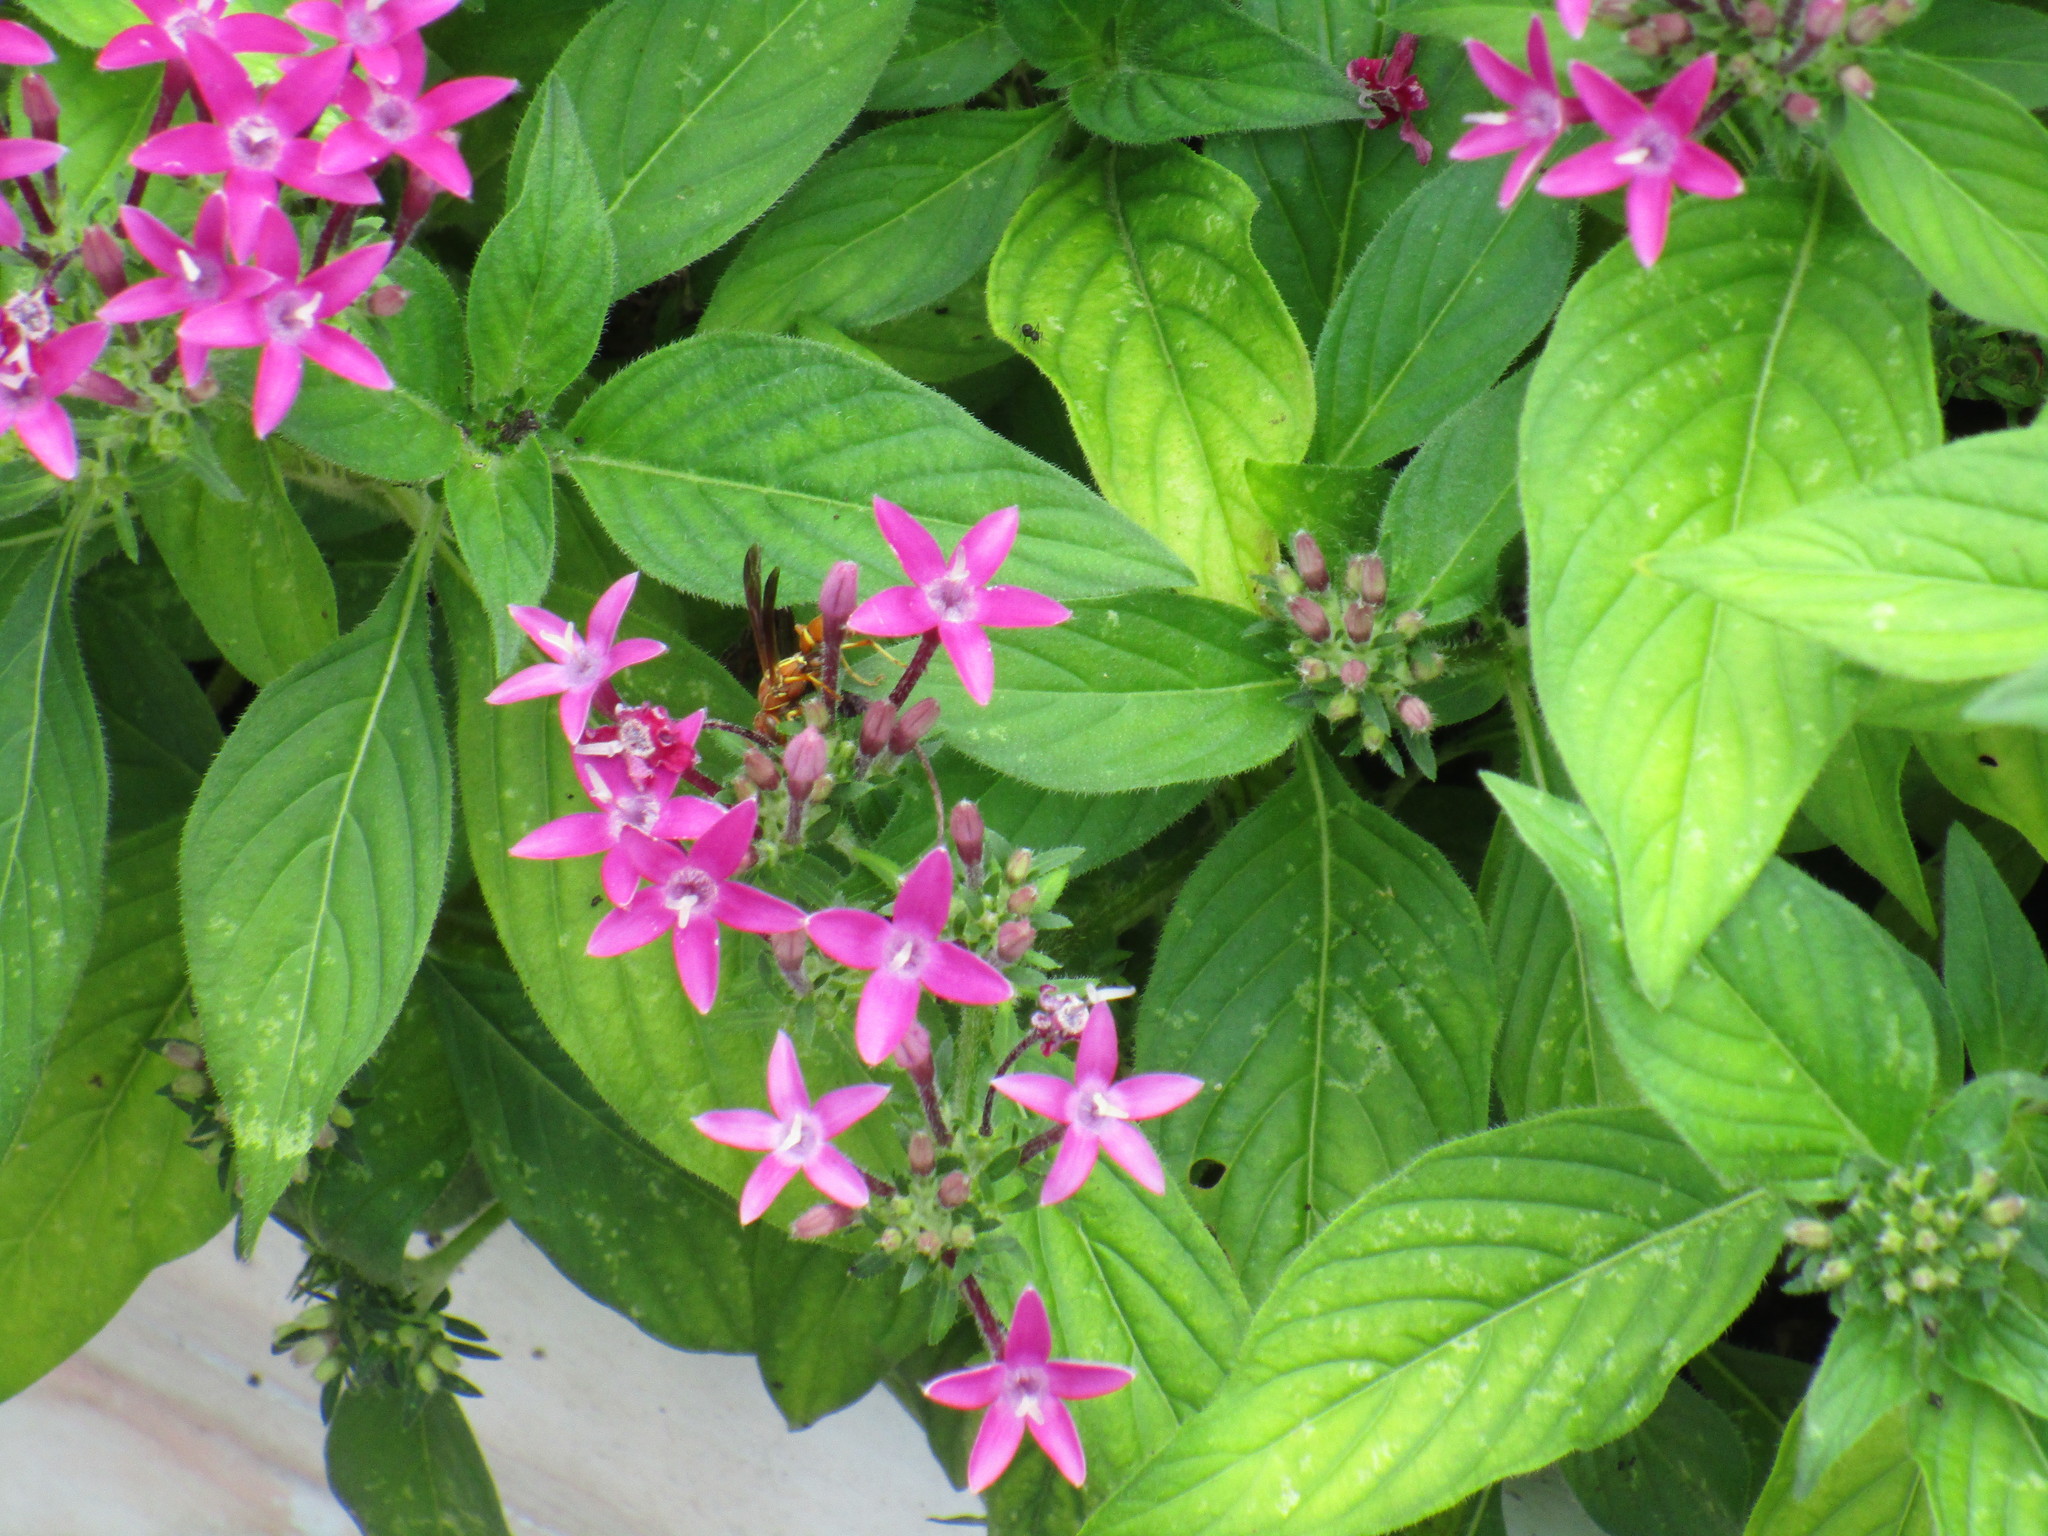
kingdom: Animalia
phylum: Arthropoda
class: Insecta
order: Hymenoptera
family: Eumenidae
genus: Polistes
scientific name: Polistes bellicosus
